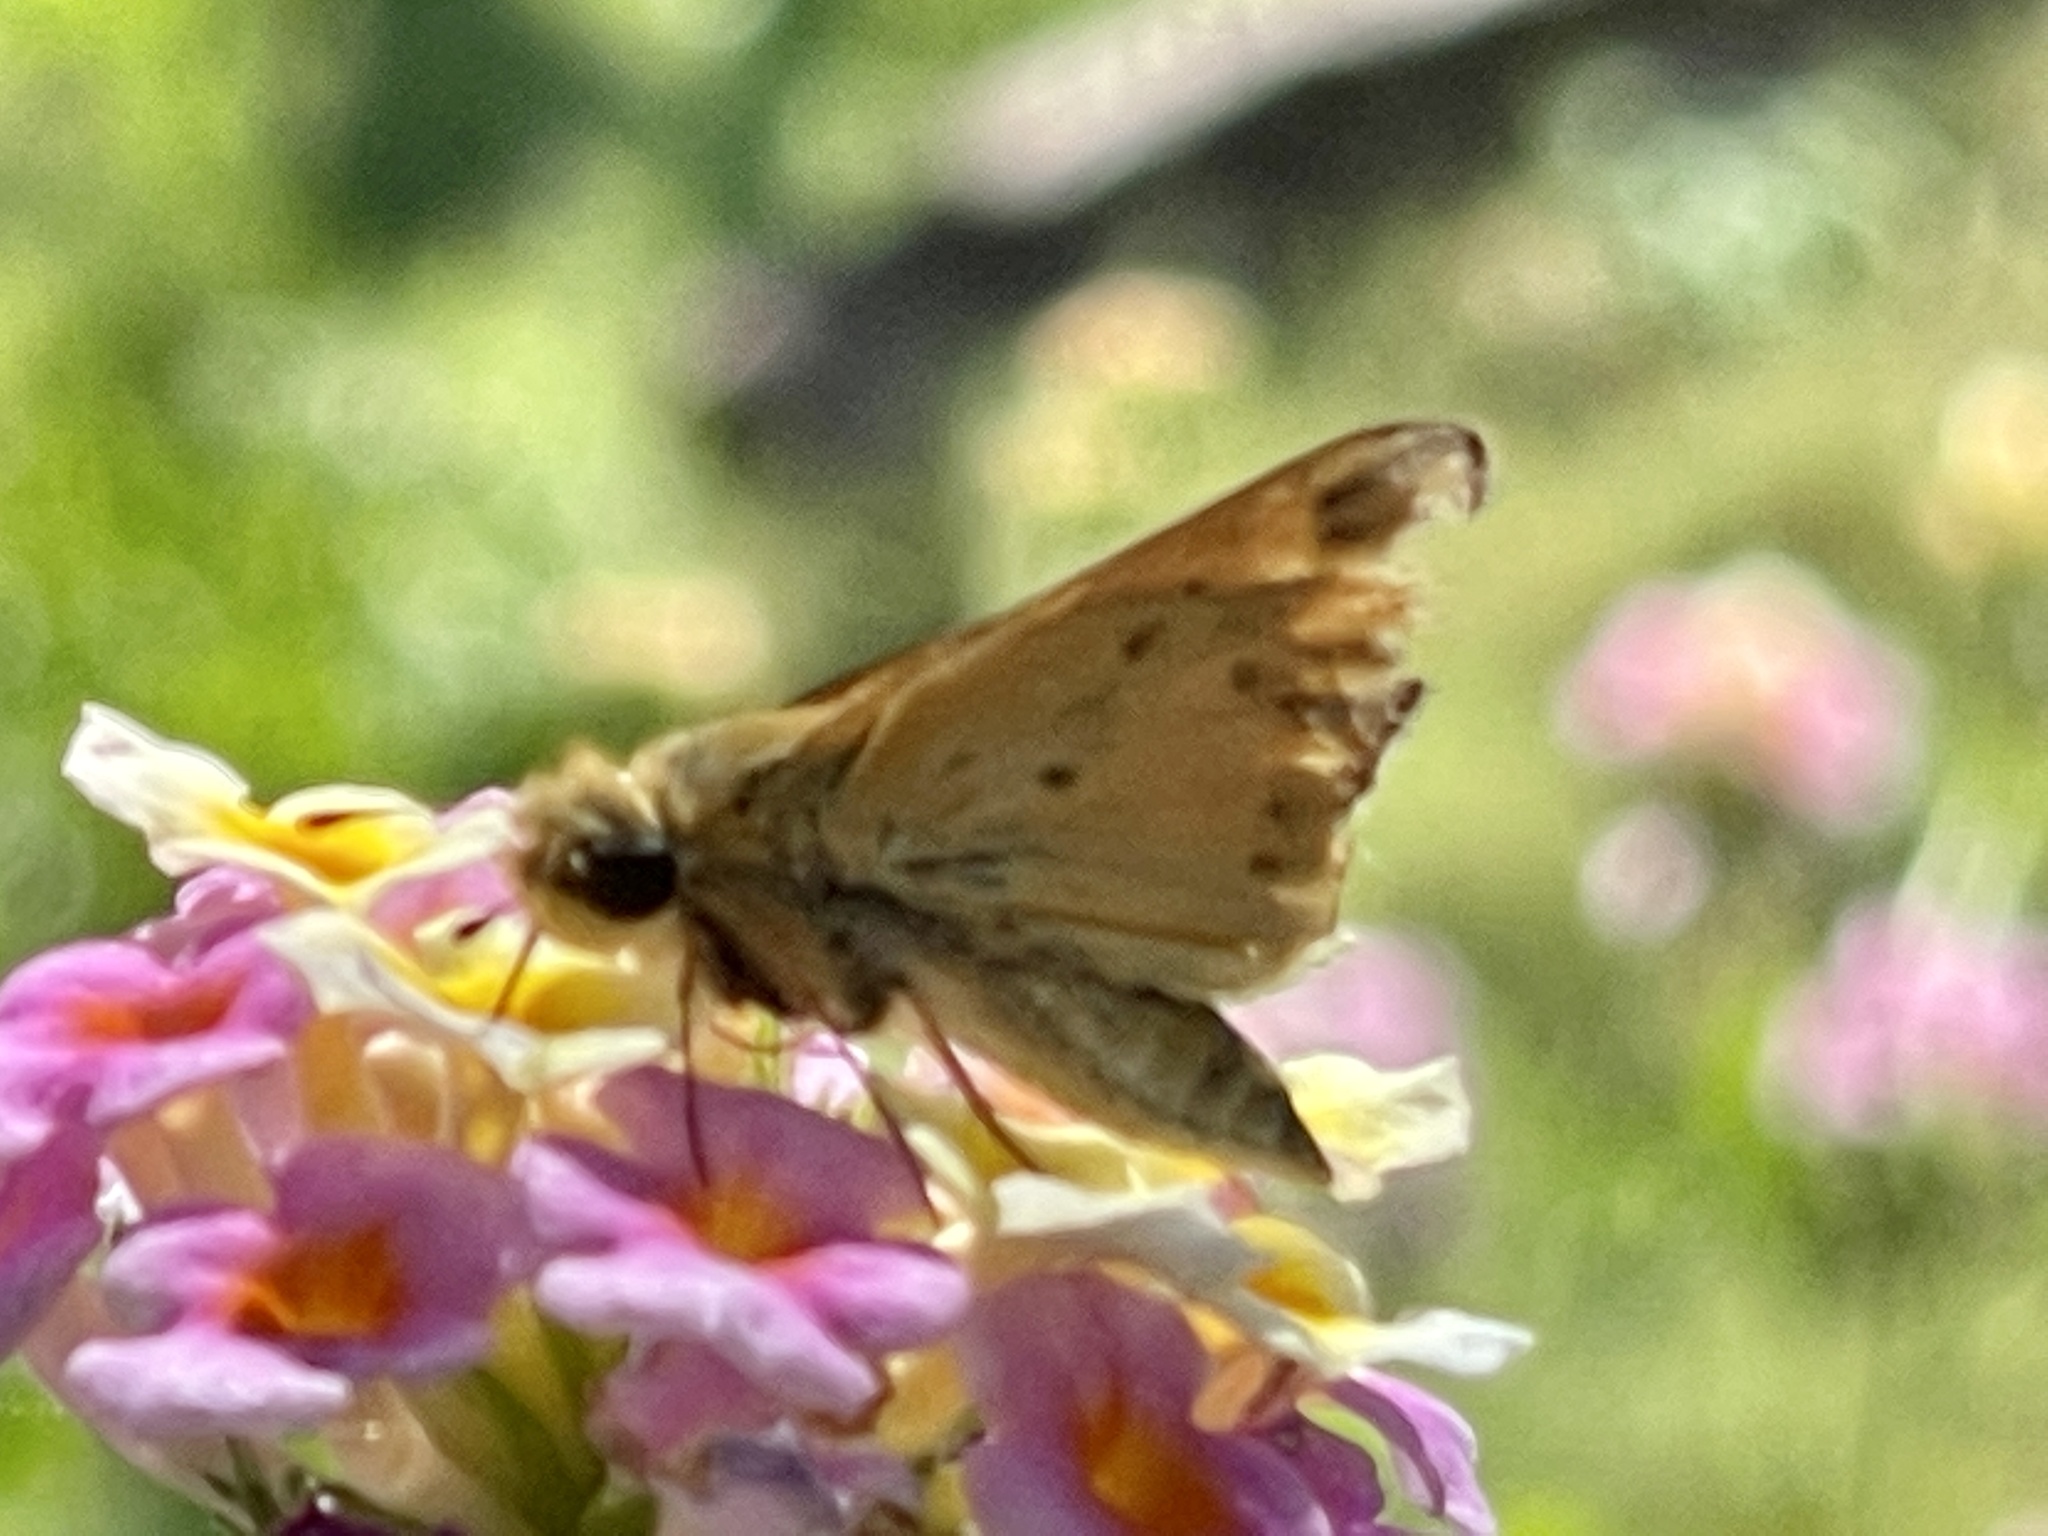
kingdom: Animalia
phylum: Arthropoda
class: Insecta
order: Lepidoptera
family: Hesperiidae
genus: Hylephila
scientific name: Hylephila phyleus
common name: Fiery skipper
